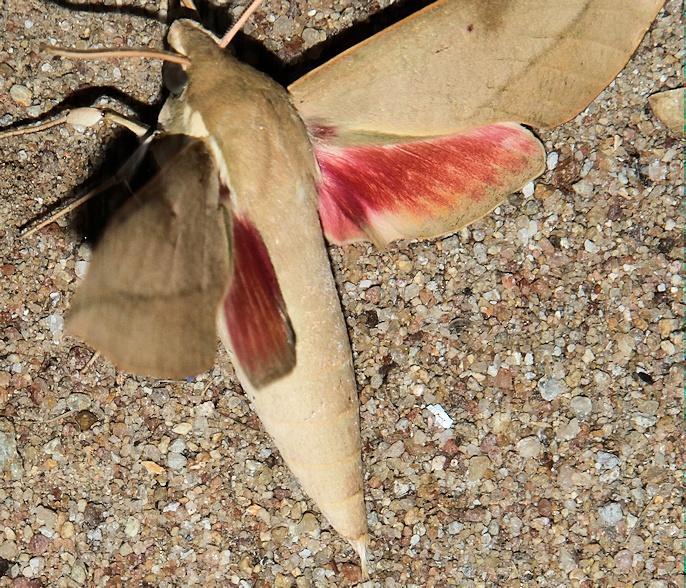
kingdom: Animalia
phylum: Arthropoda
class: Insecta
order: Lepidoptera
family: Sphingidae
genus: Theretra
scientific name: Theretra capensis
